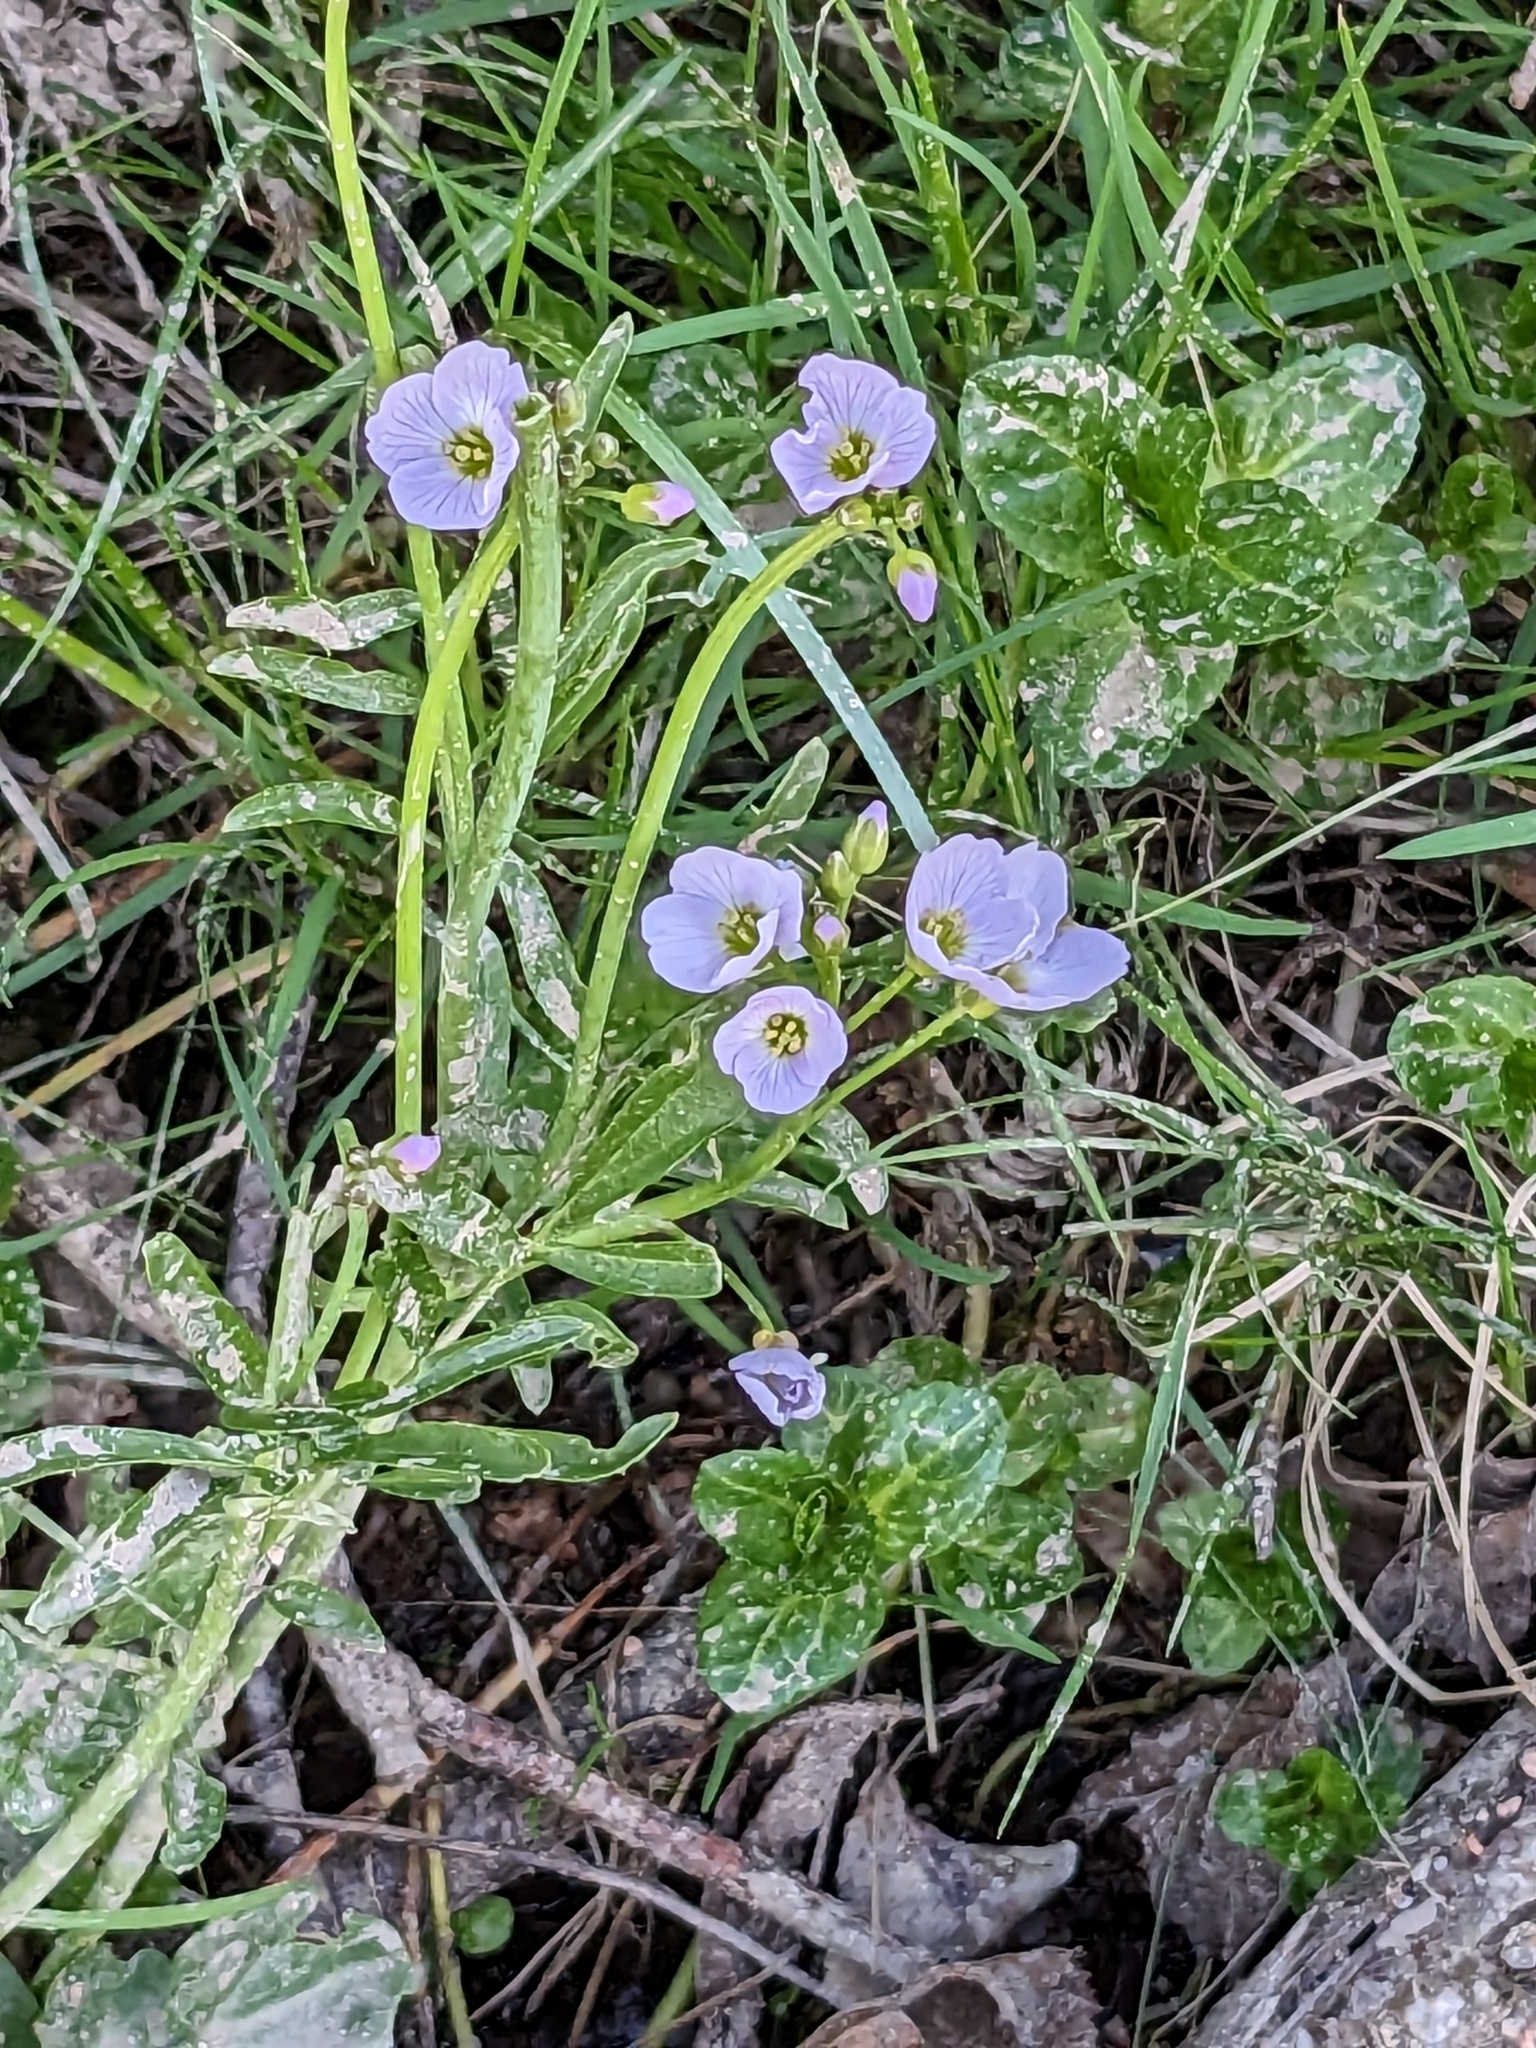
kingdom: Plantae
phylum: Tracheophyta
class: Magnoliopsida
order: Brassicales
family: Brassicaceae
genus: Cardamine
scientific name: Cardamine pratensis
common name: Cuckoo flower
